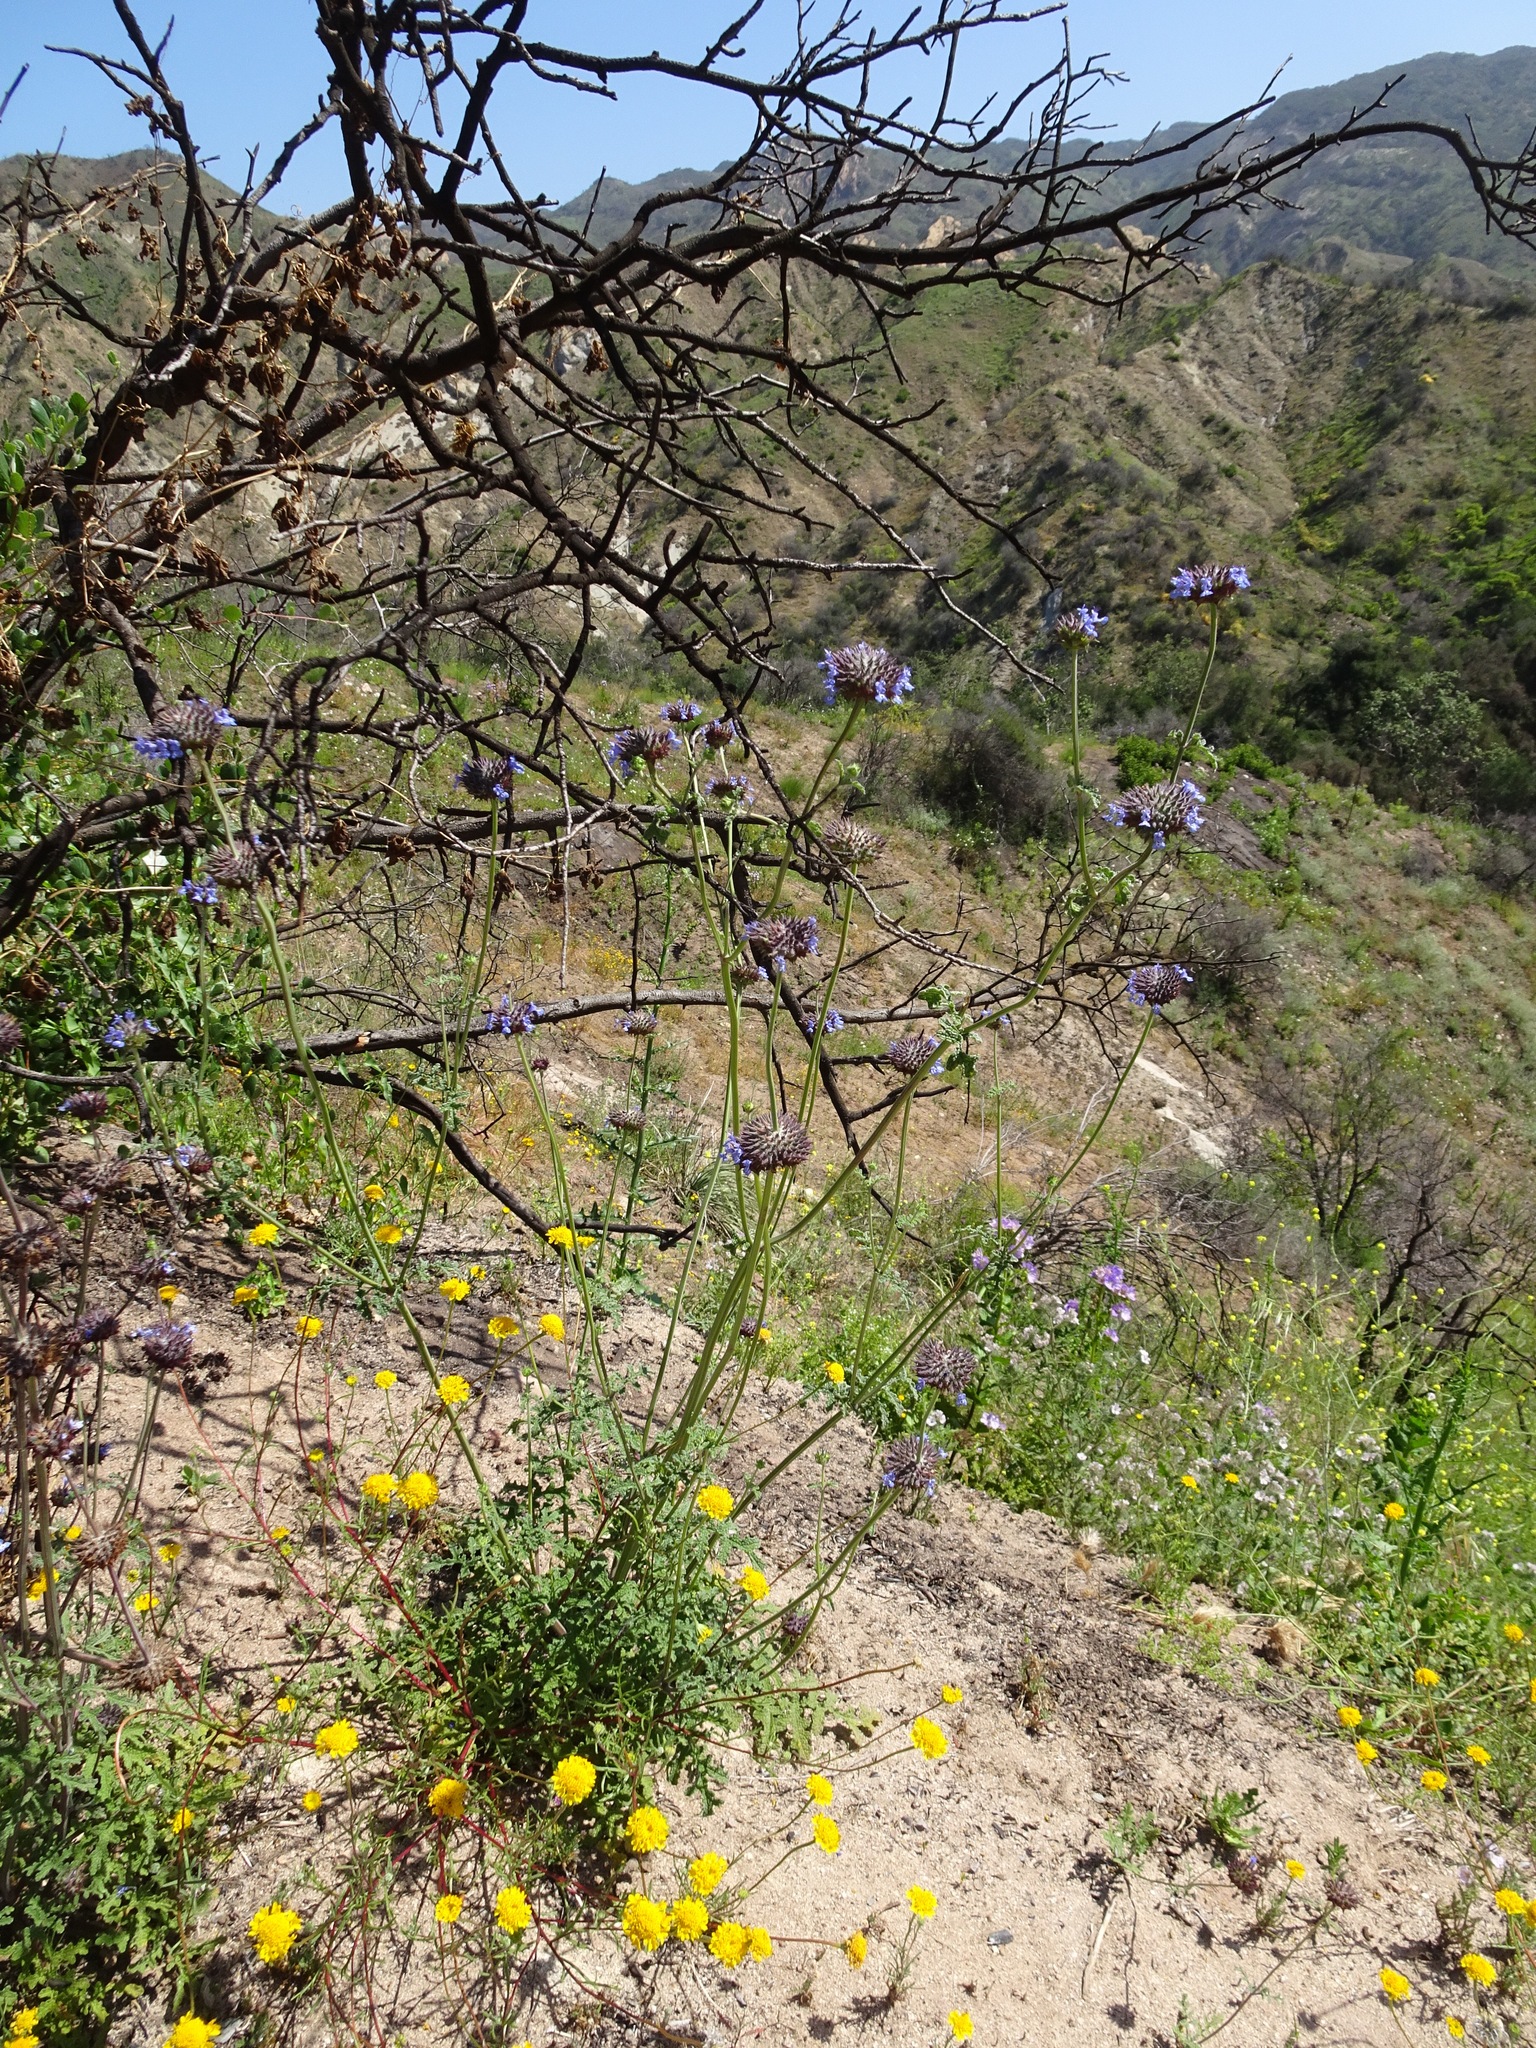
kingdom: Plantae
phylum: Tracheophyta
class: Magnoliopsida
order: Lamiales
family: Lamiaceae
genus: Salvia
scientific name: Salvia columbariae
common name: Chia
